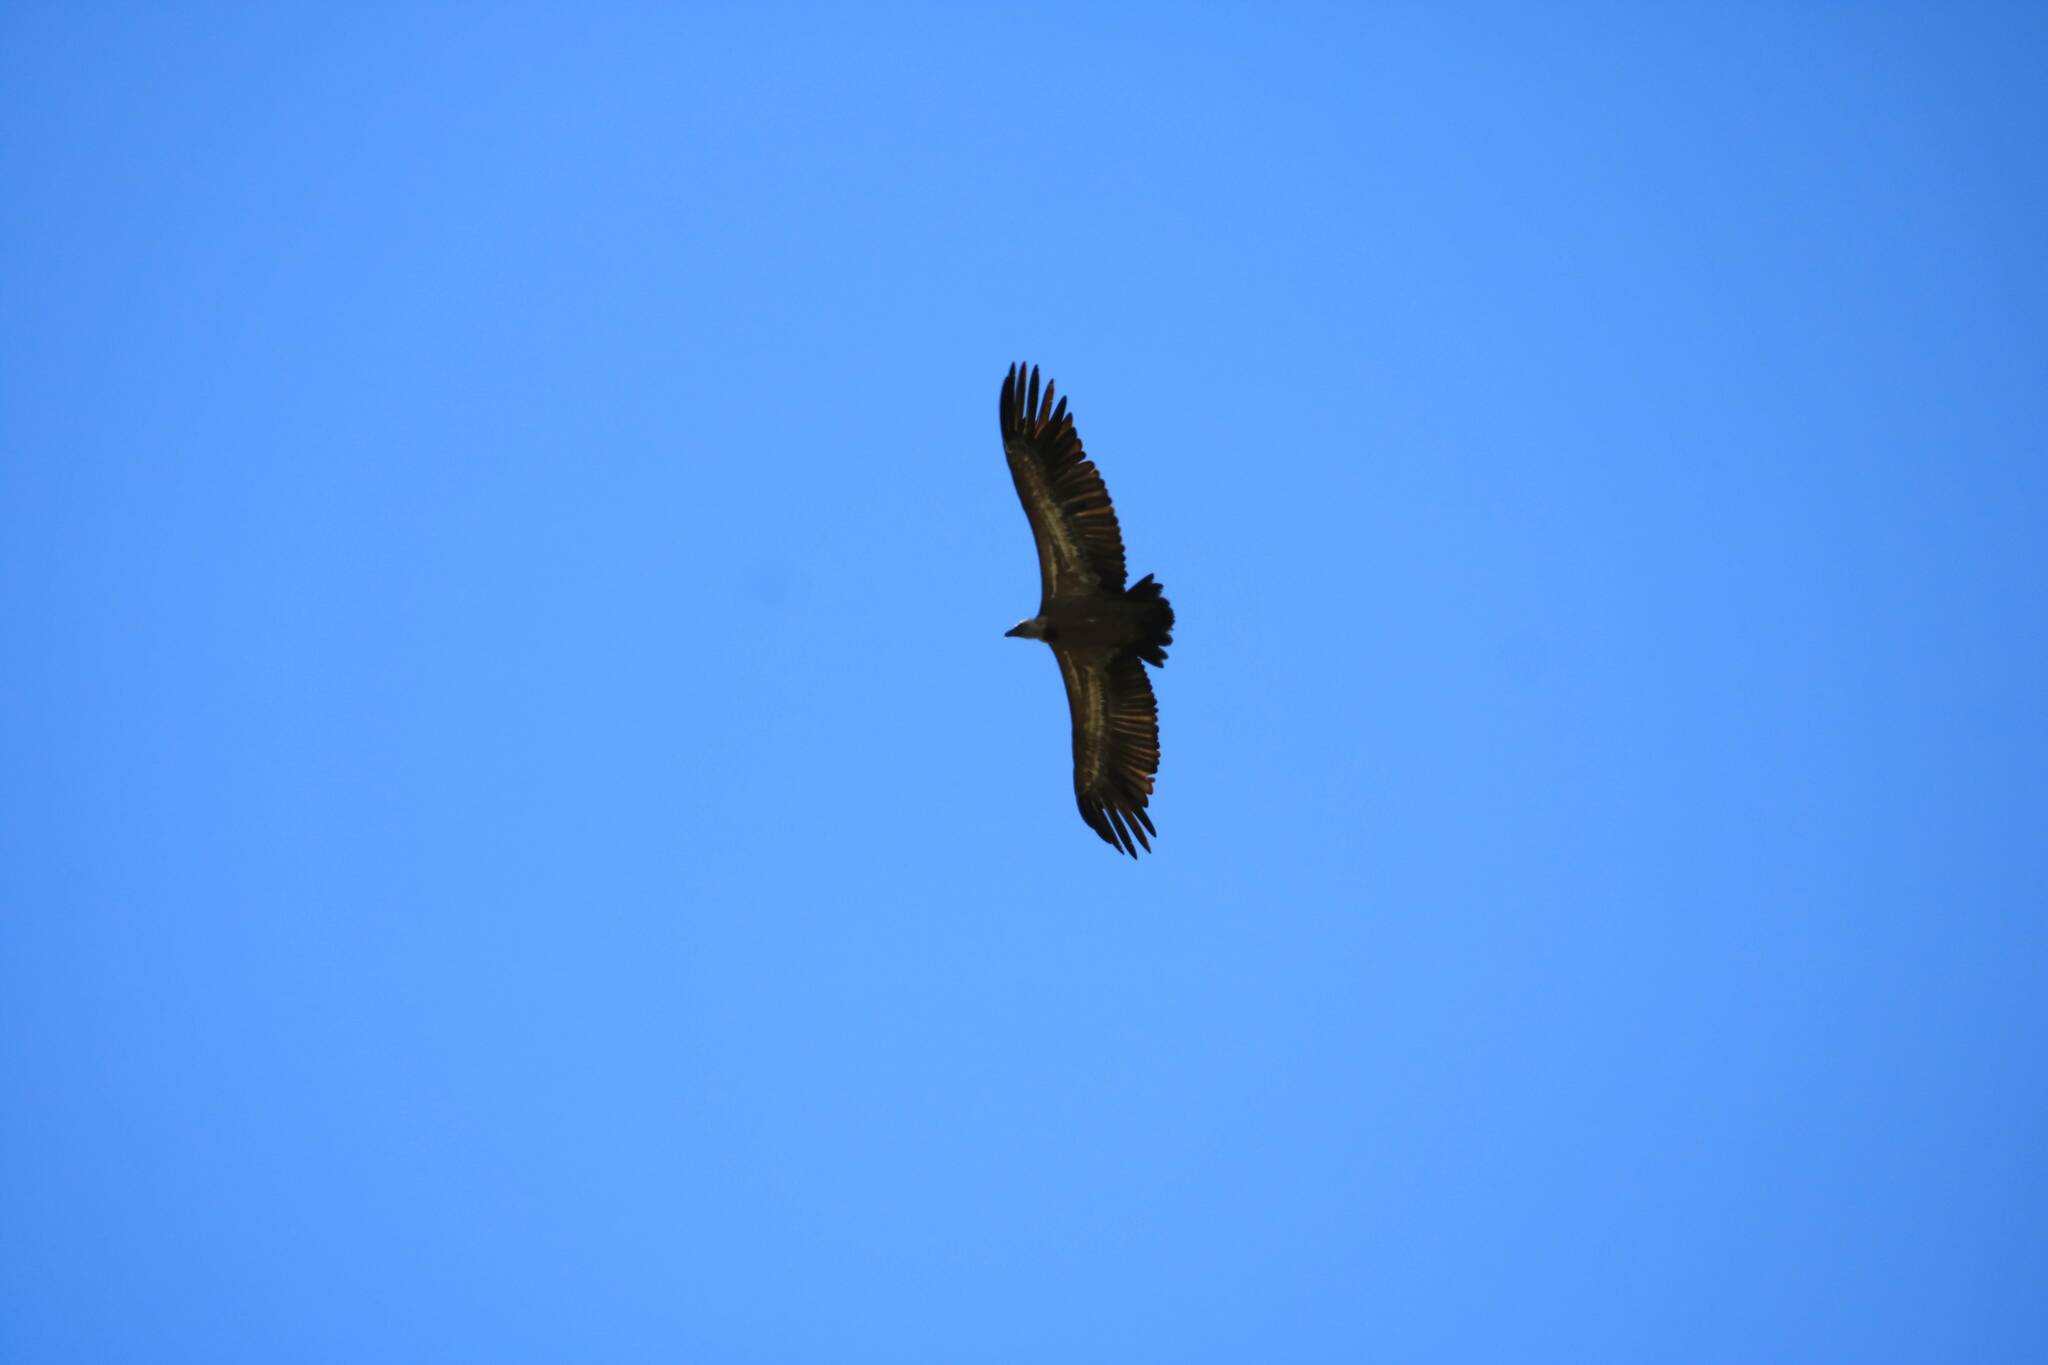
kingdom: Animalia
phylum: Chordata
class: Aves
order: Accipitriformes
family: Accipitridae
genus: Gyps
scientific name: Gyps fulvus
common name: Griffon vulture
